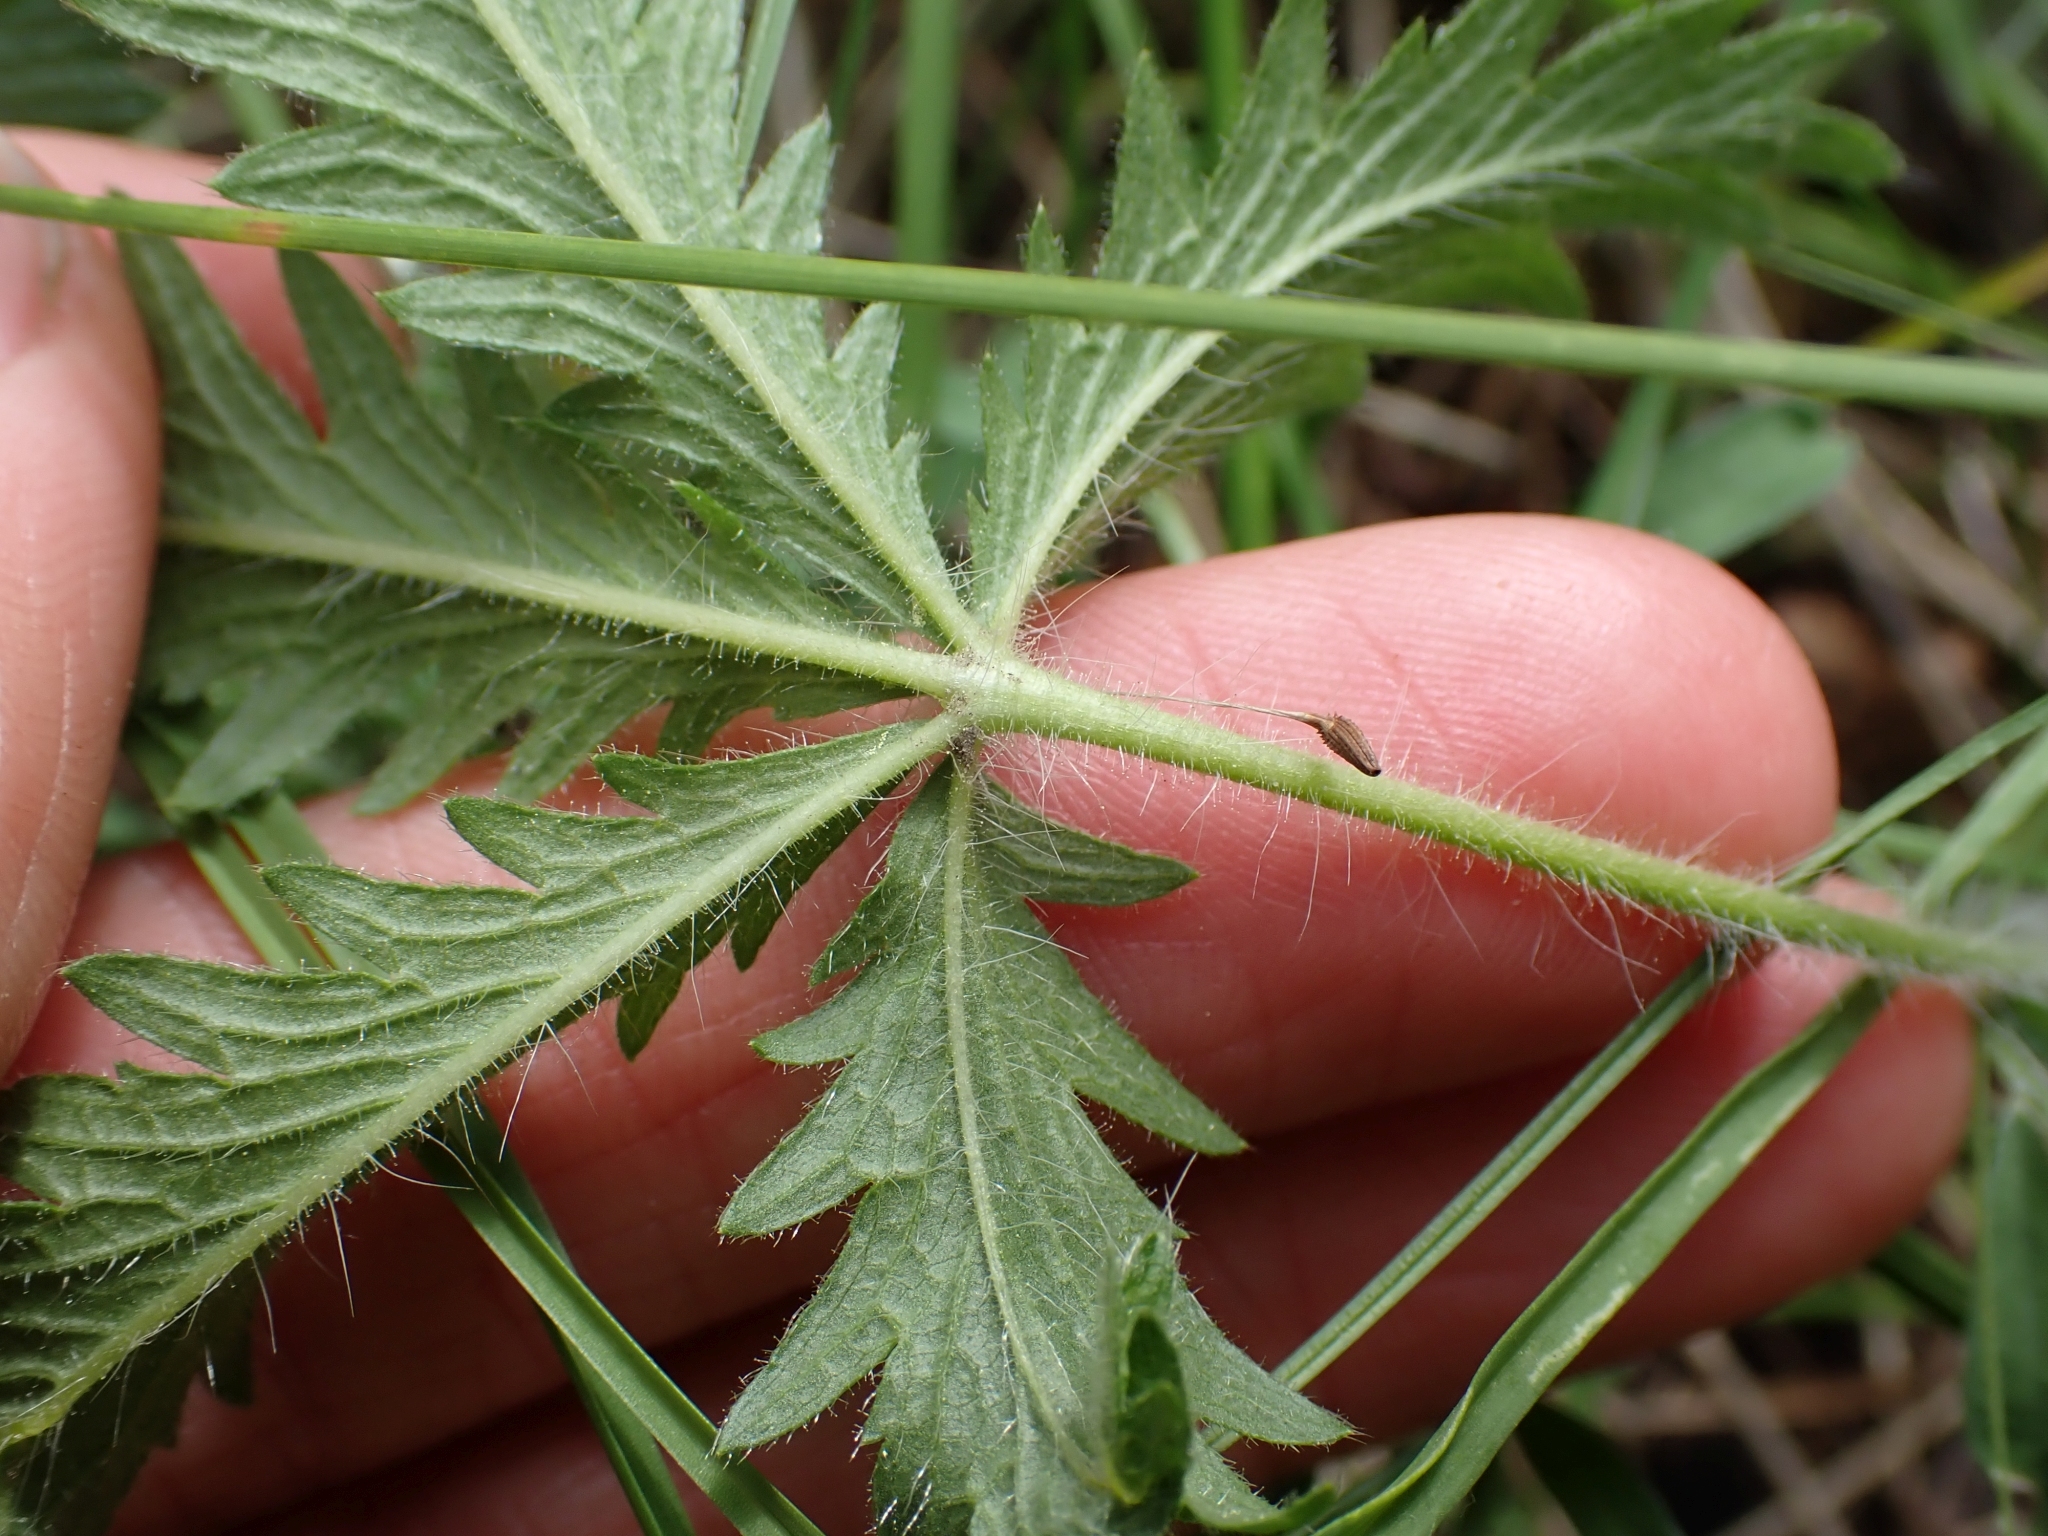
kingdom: Plantae
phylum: Tracheophyta
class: Magnoliopsida
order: Rosales
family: Rosaceae
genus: Potentilla
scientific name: Potentilla recta
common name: Sulphur cinquefoil
